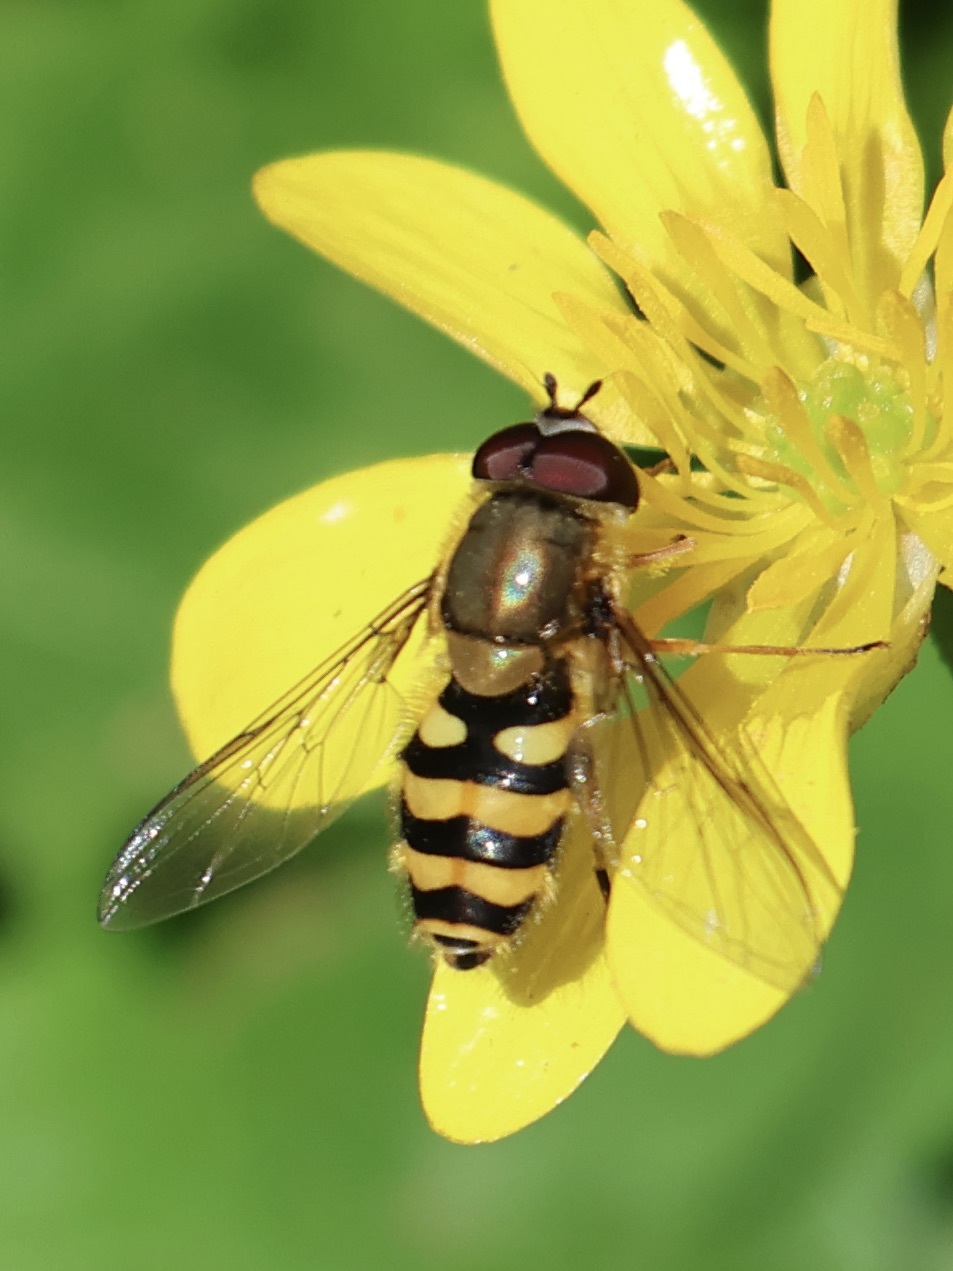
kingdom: Animalia
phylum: Arthropoda
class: Insecta
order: Diptera
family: Syrphidae
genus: Syrphus
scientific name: Syrphus
